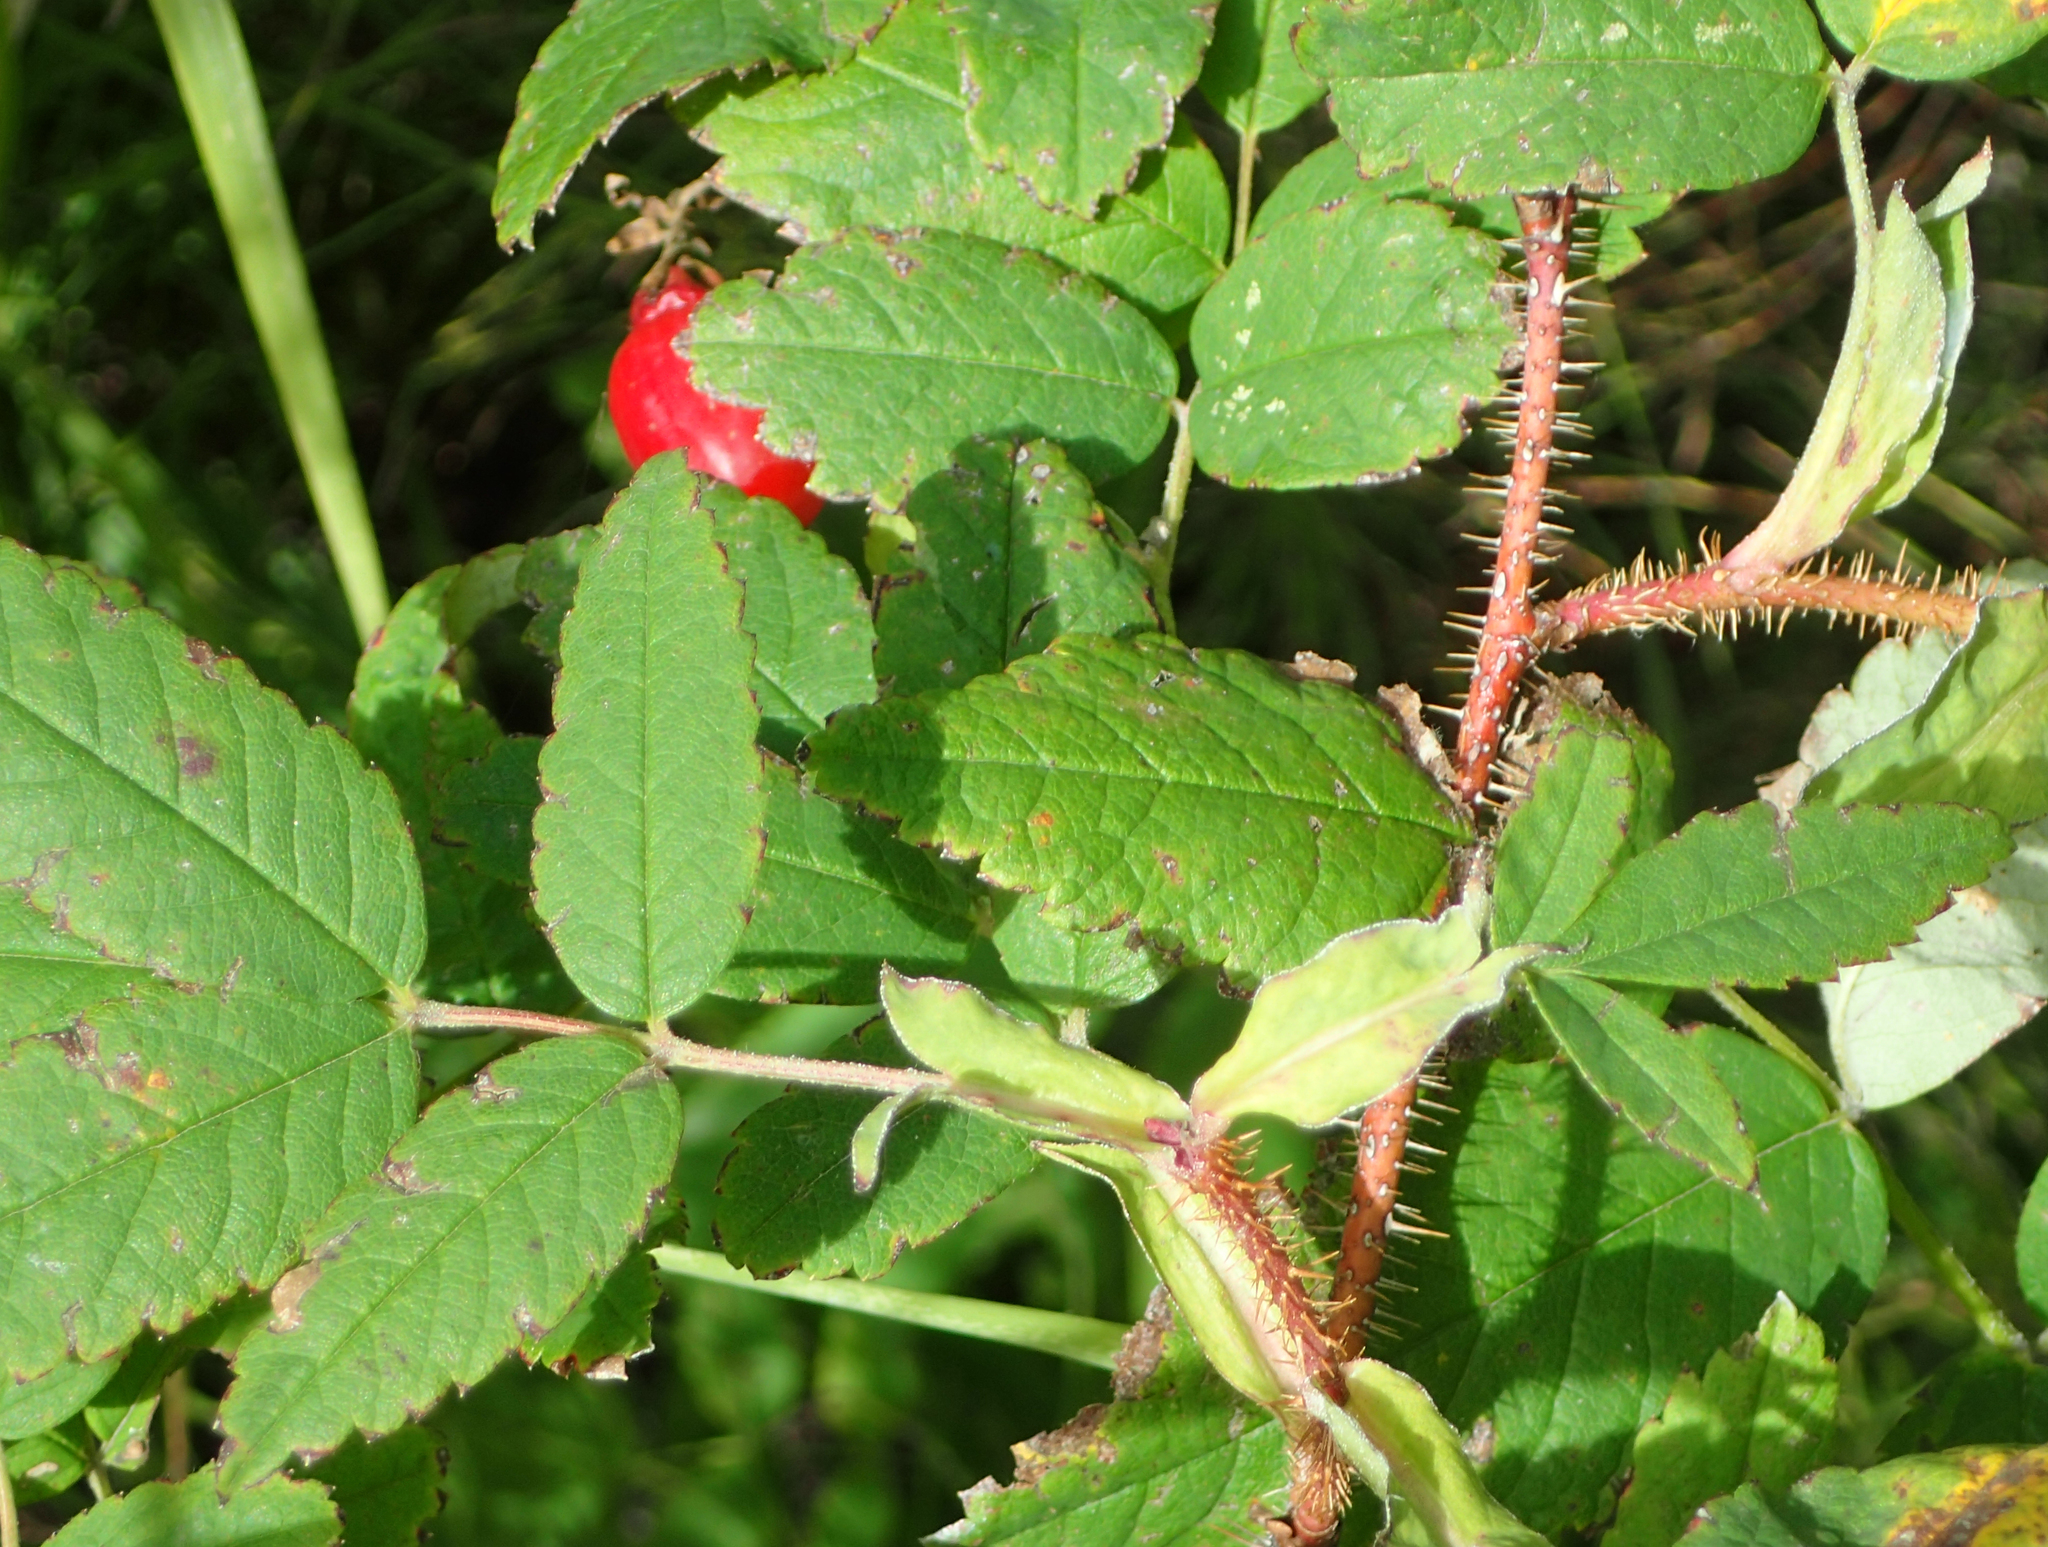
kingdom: Plantae
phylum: Tracheophyta
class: Magnoliopsida
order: Rosales
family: Rosaceae
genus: Rosa
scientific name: Rosa acicularis
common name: Prickly rose
